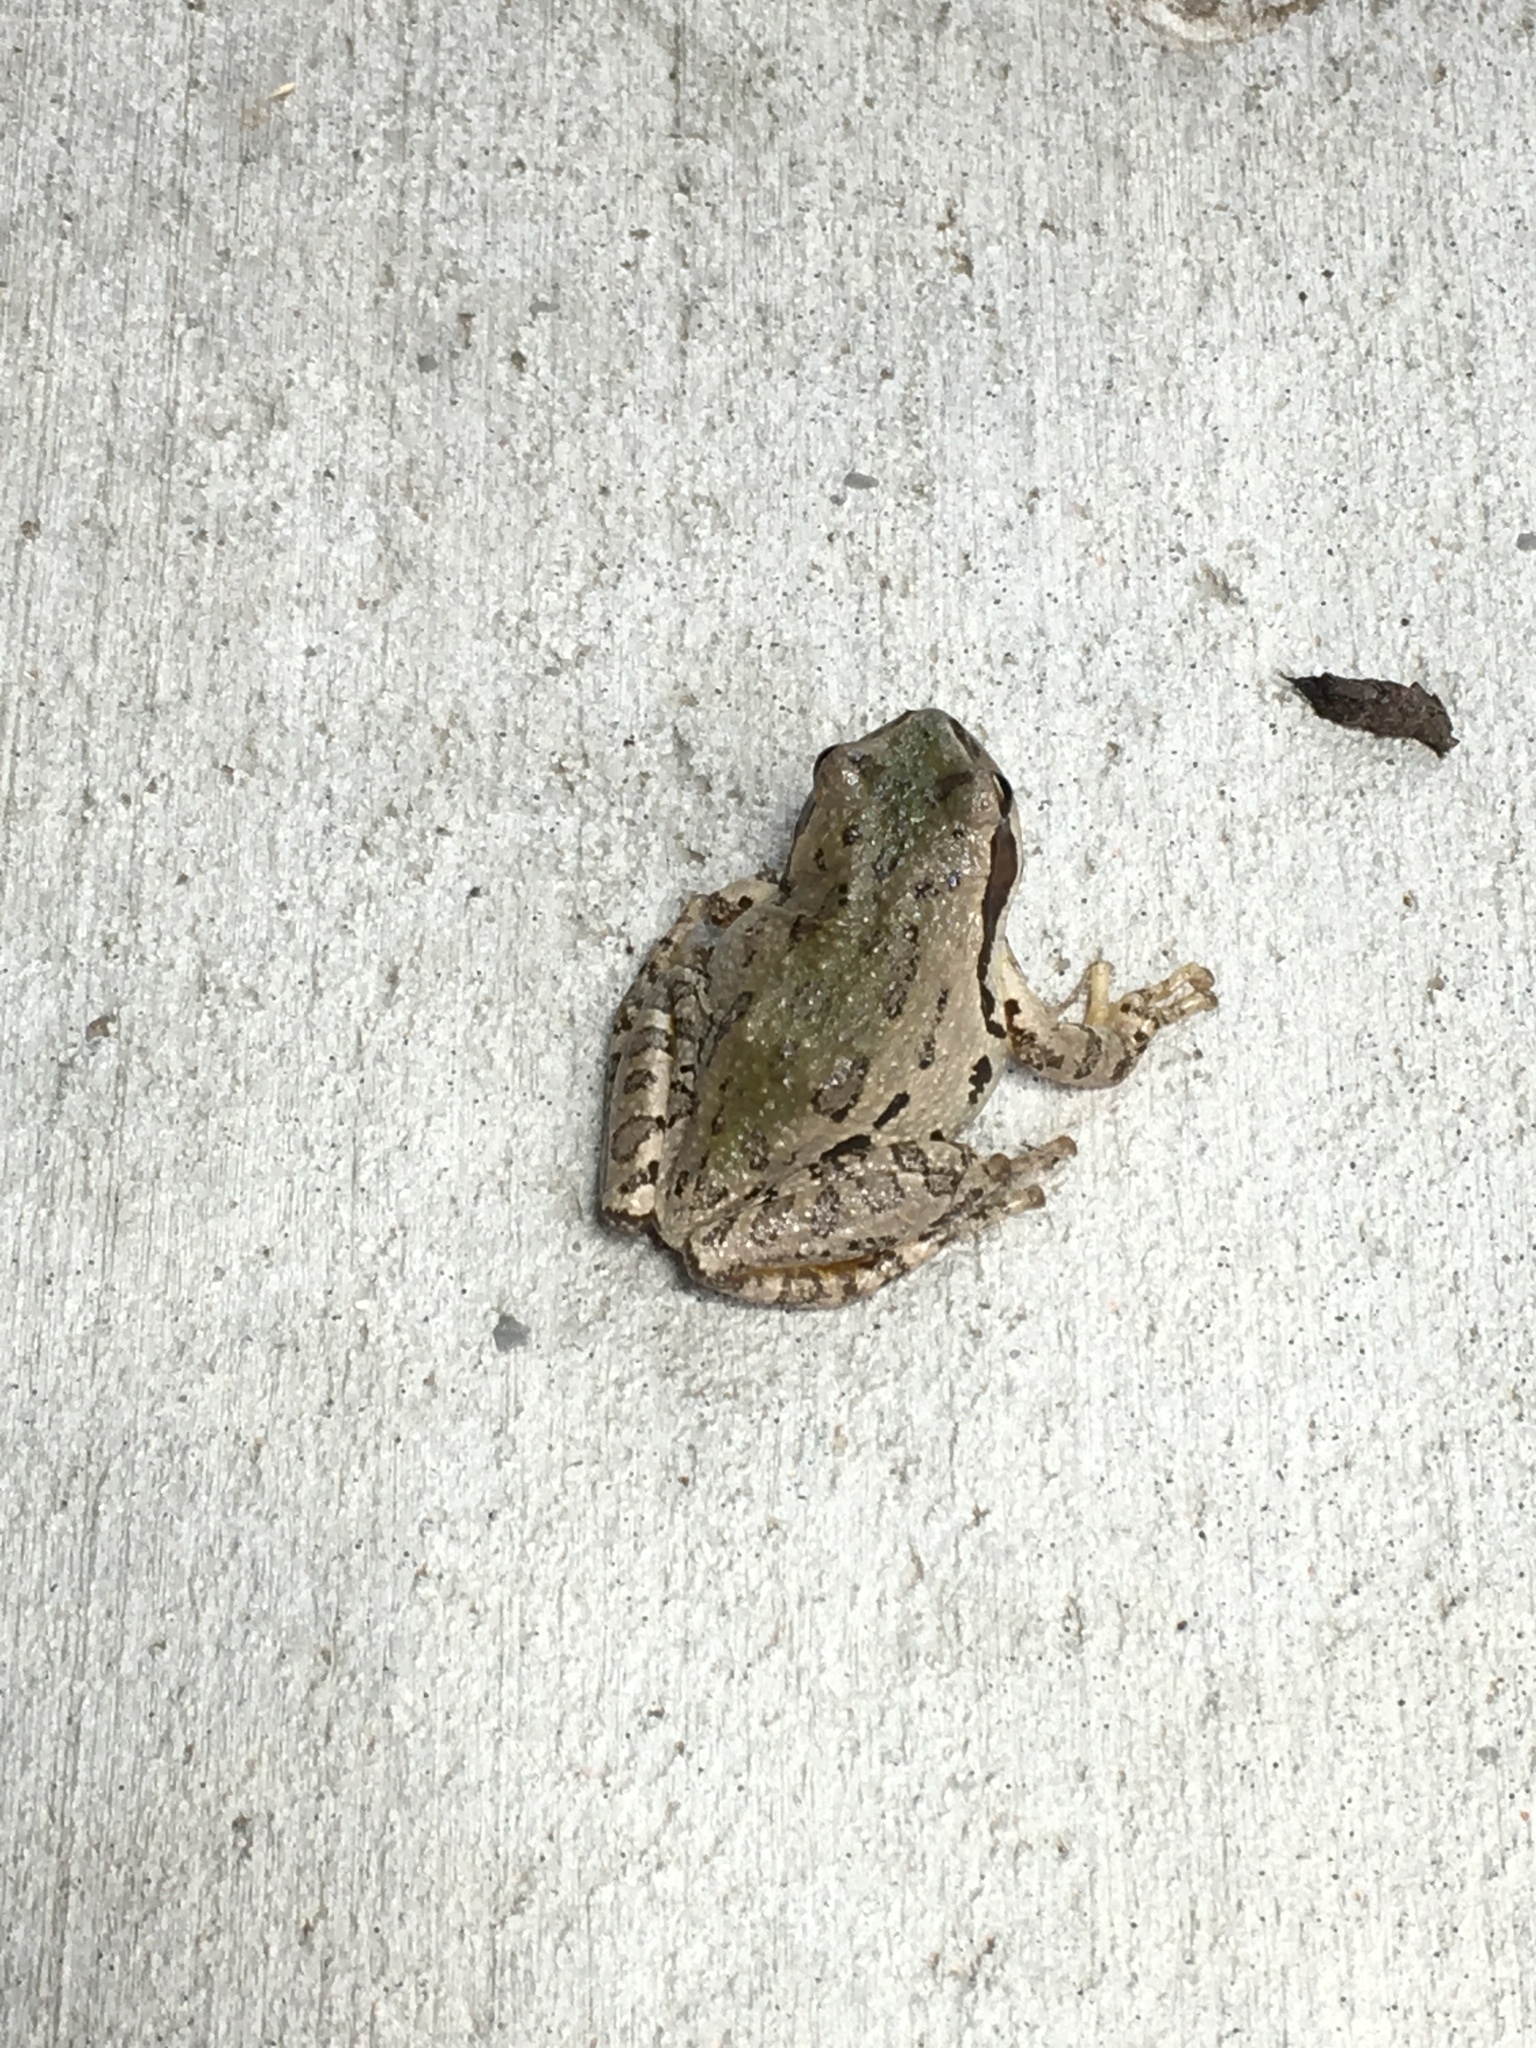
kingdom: Animalia
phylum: Chordata
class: Amphibia
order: Anura
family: Hylidae
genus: Pseudacris
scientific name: Pseudacris regilla
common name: Pacific chorus frog
